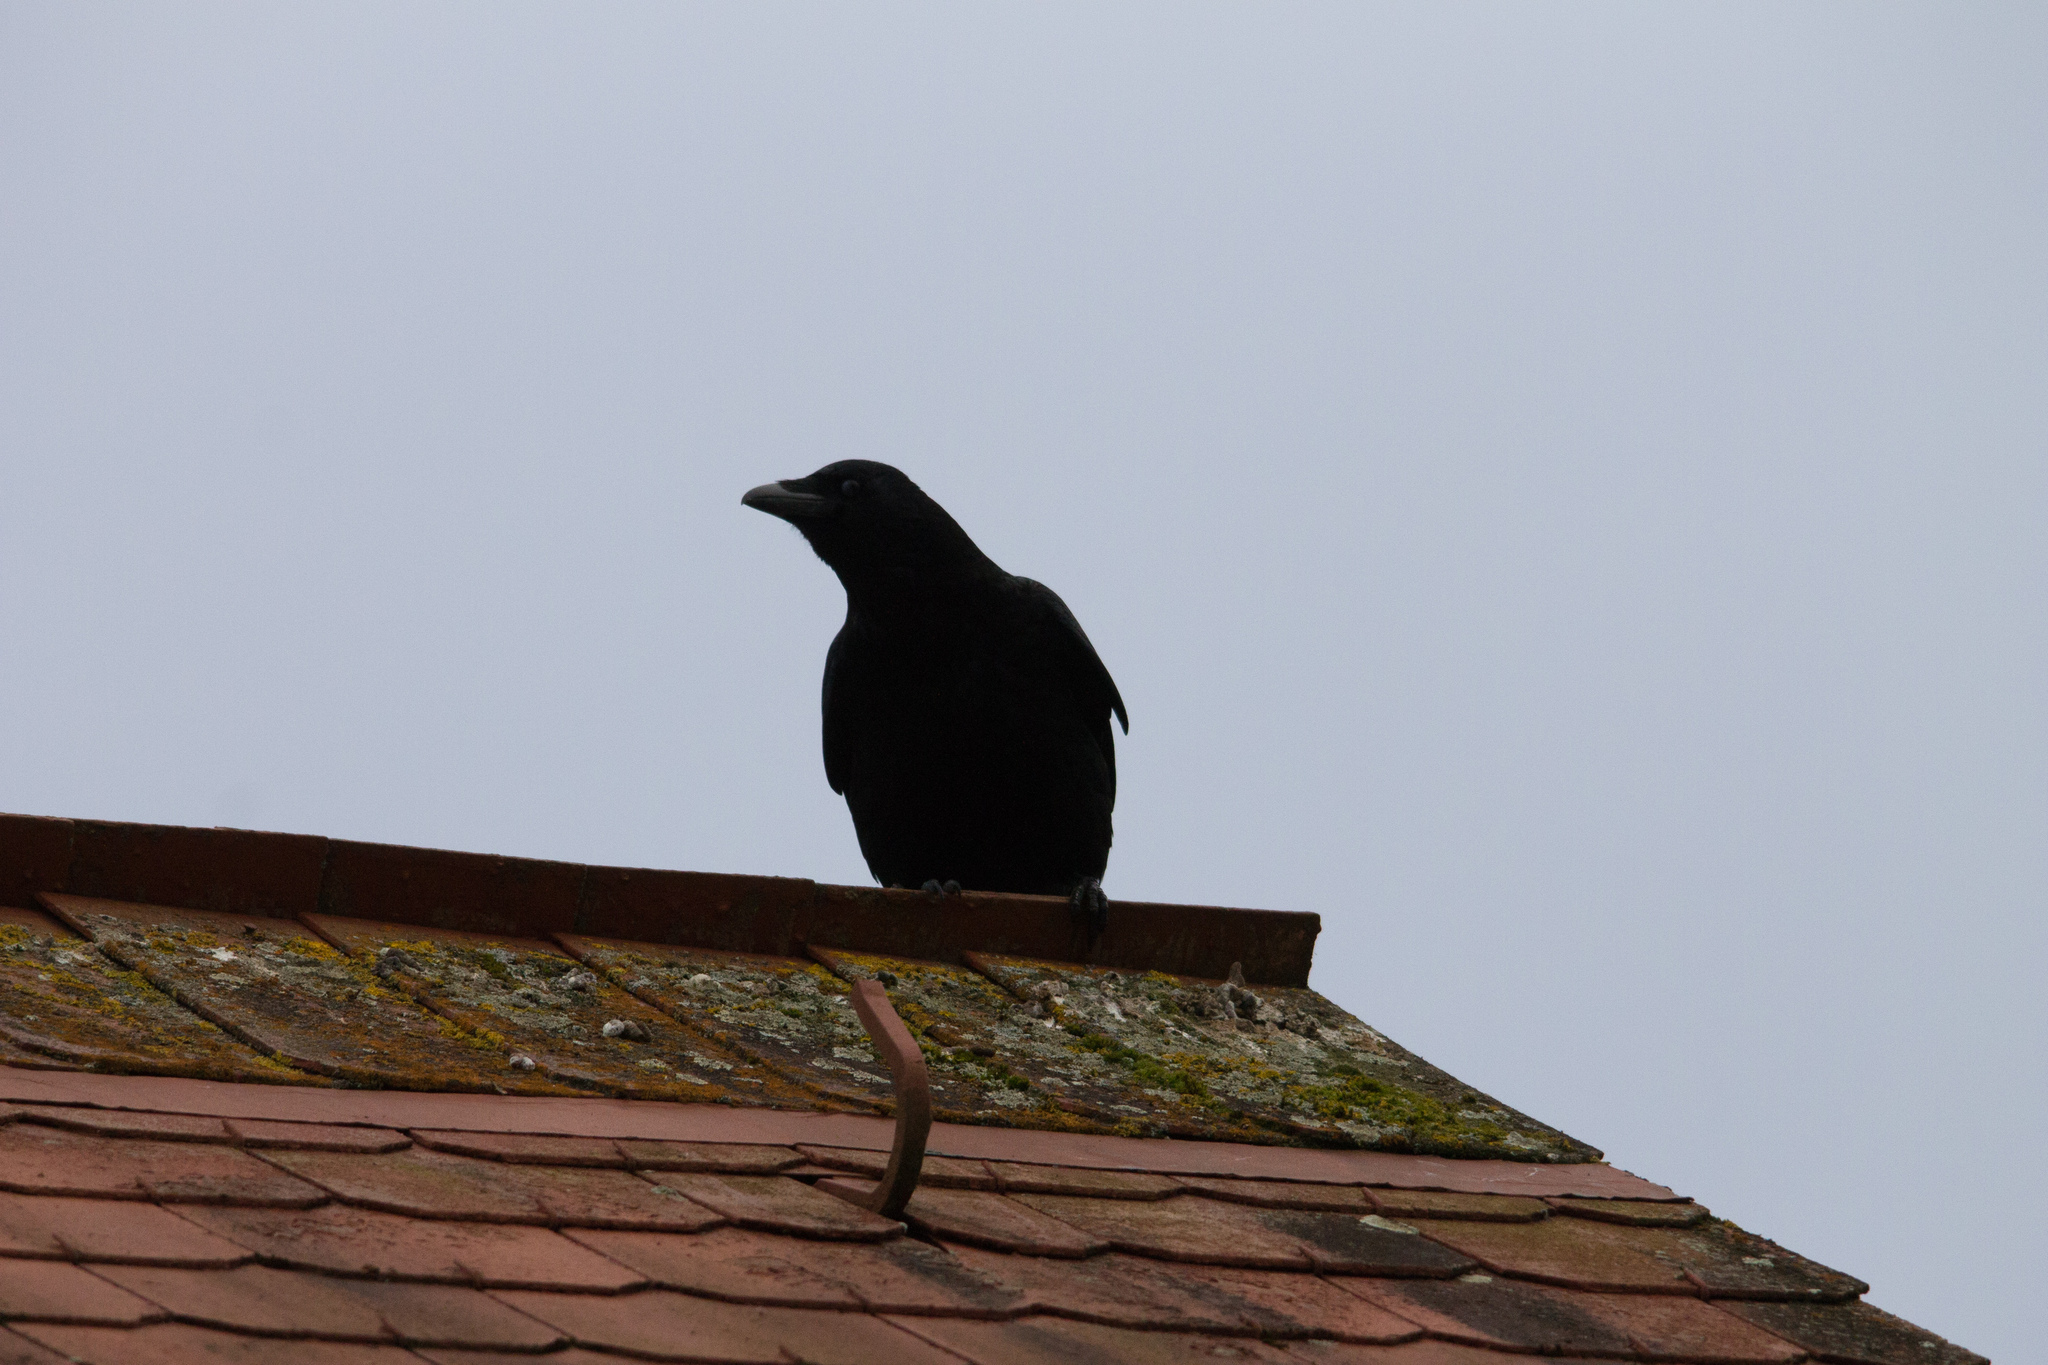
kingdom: Animalia
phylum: Chordata
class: Aves
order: Passeriformes
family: Corvidae
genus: Corvus
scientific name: Corvus corone
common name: Carrion crow
